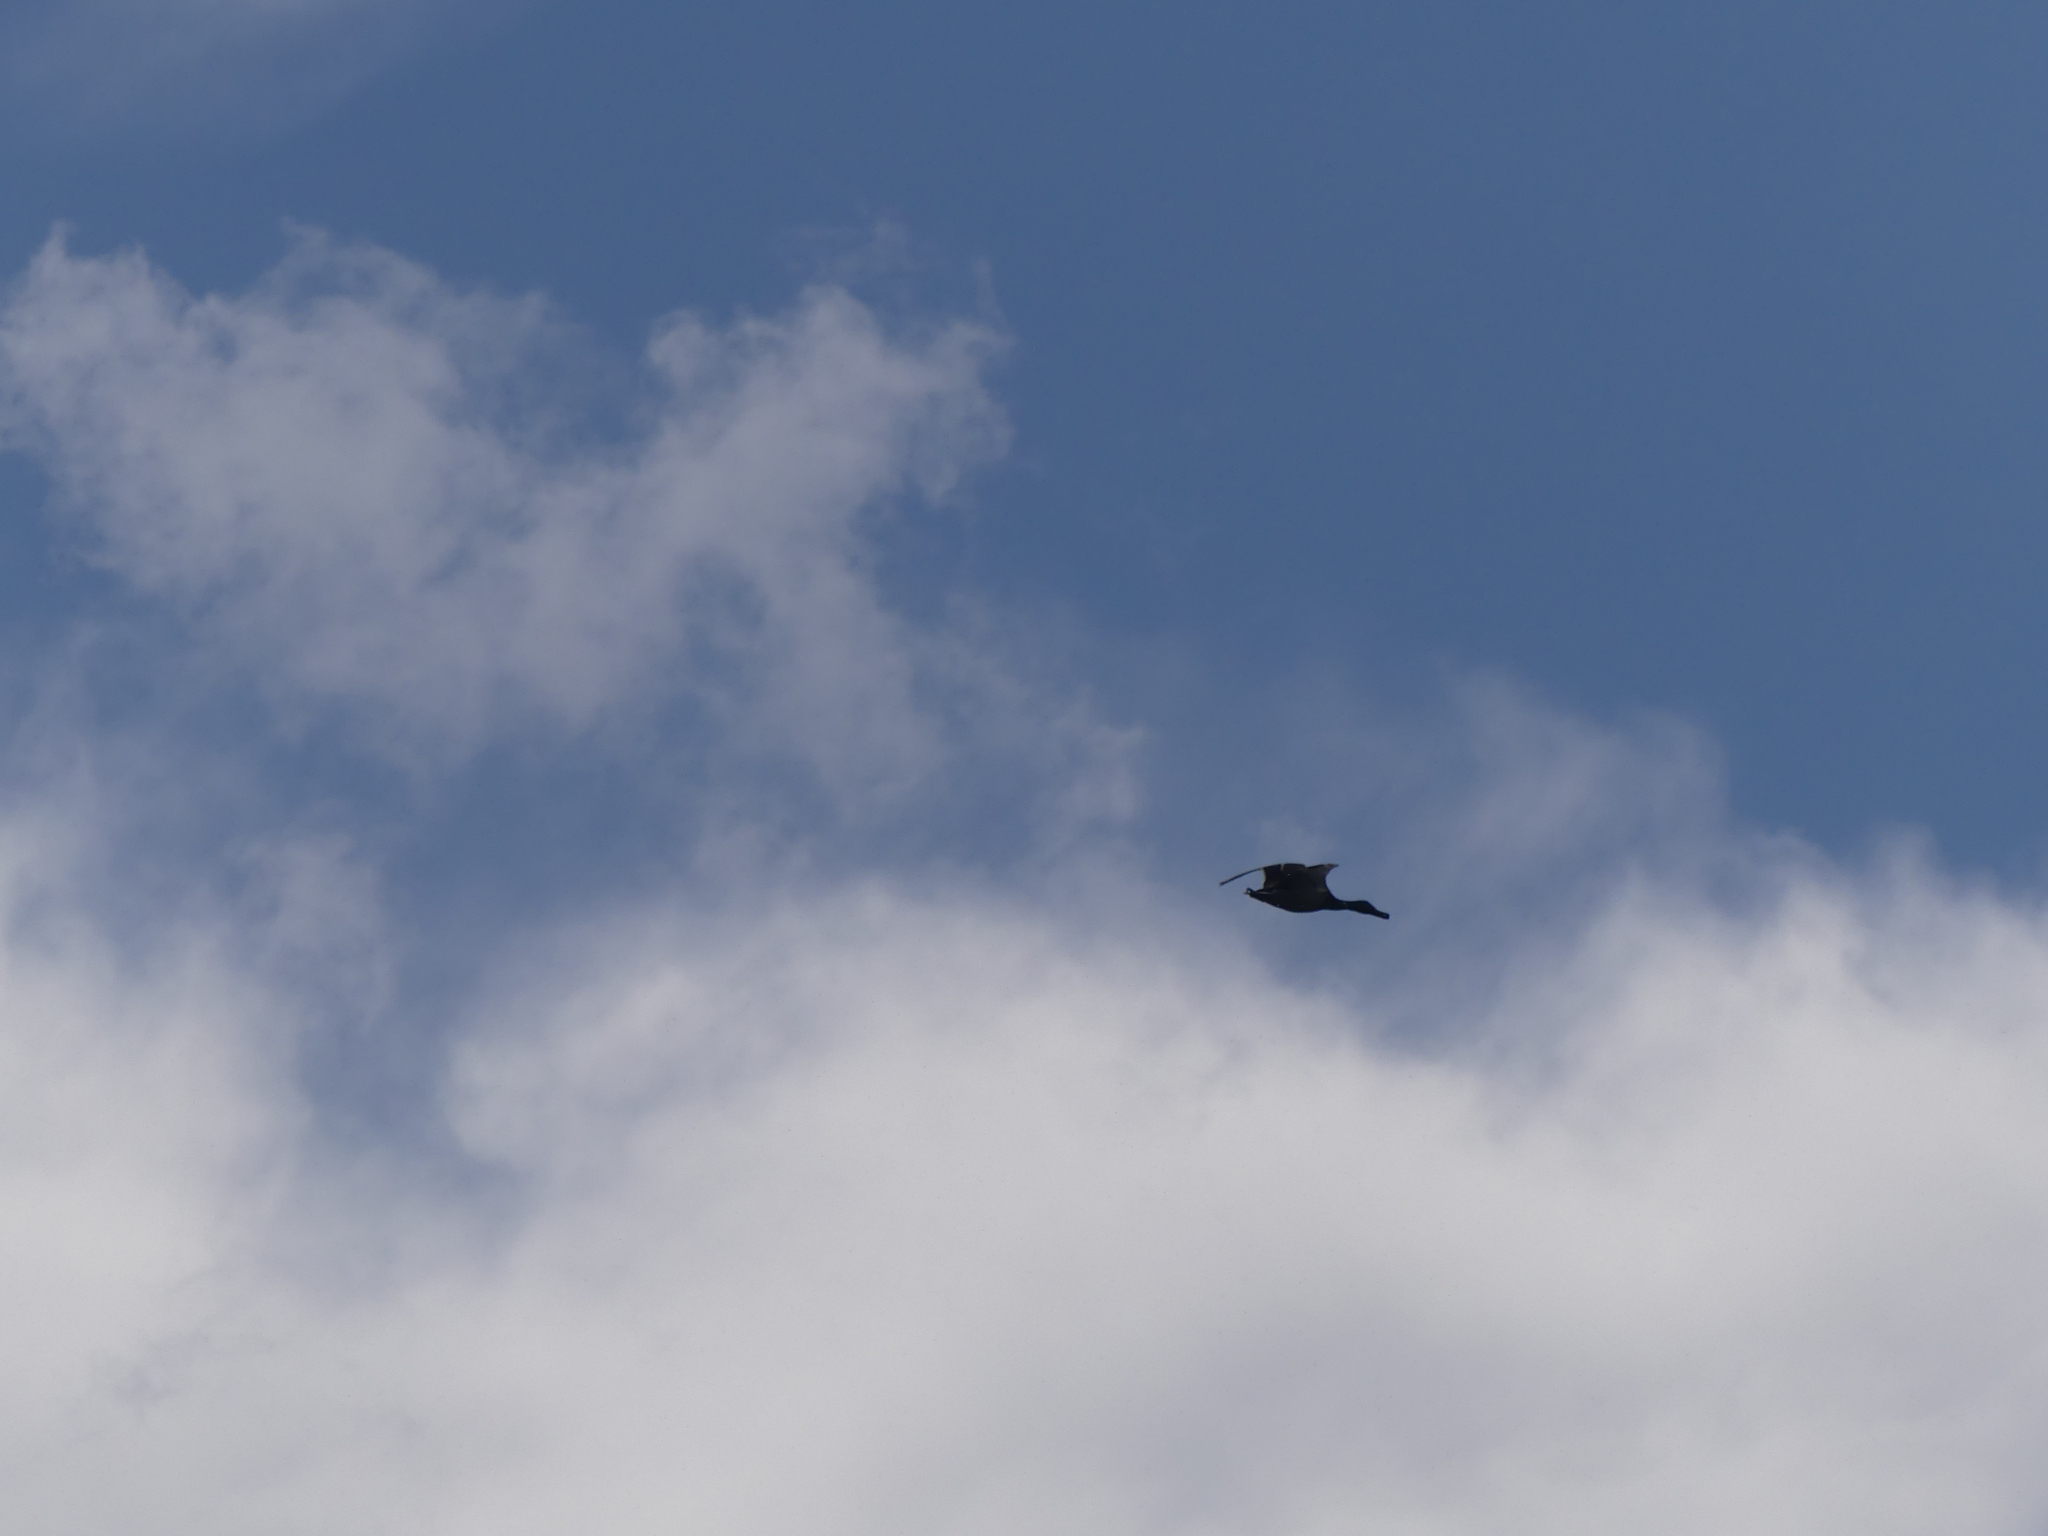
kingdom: Animalia
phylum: Chordata
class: Aves
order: Anseriformes
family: Anatidae
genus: Anas
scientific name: Anas platyrhynchos
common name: Mallard
